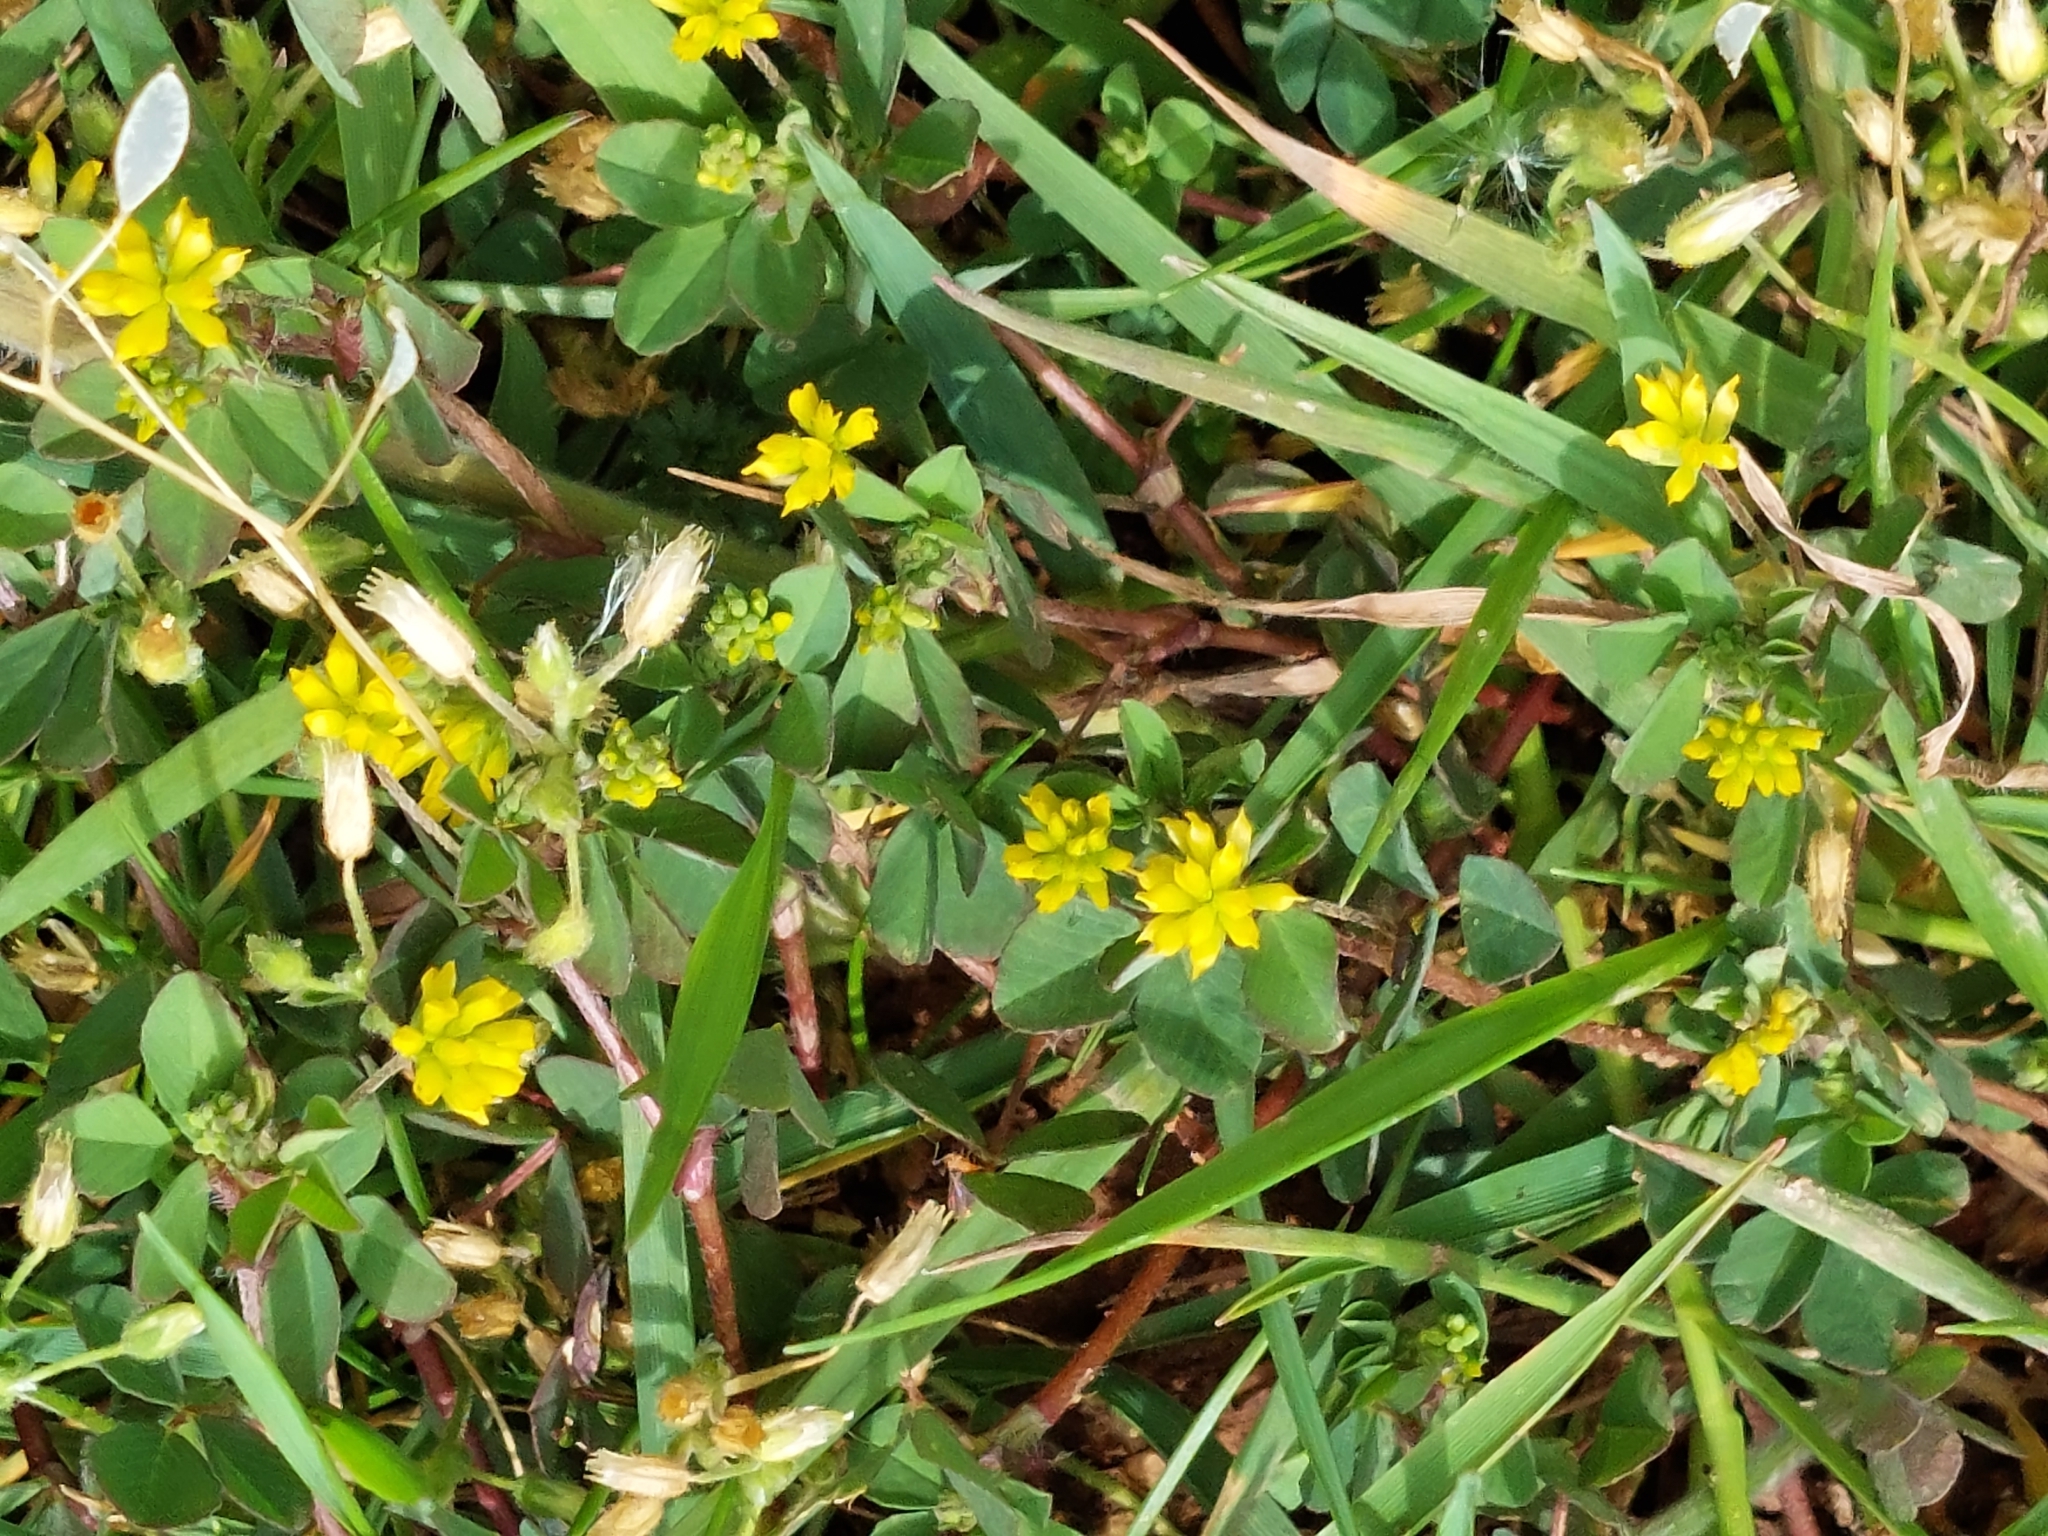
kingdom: Plantae
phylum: Tracheophyta
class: Magnoliopsida
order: Fabales
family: Fabaceae
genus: Trifolium
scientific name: Trifolium dubium
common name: Suckling clover
